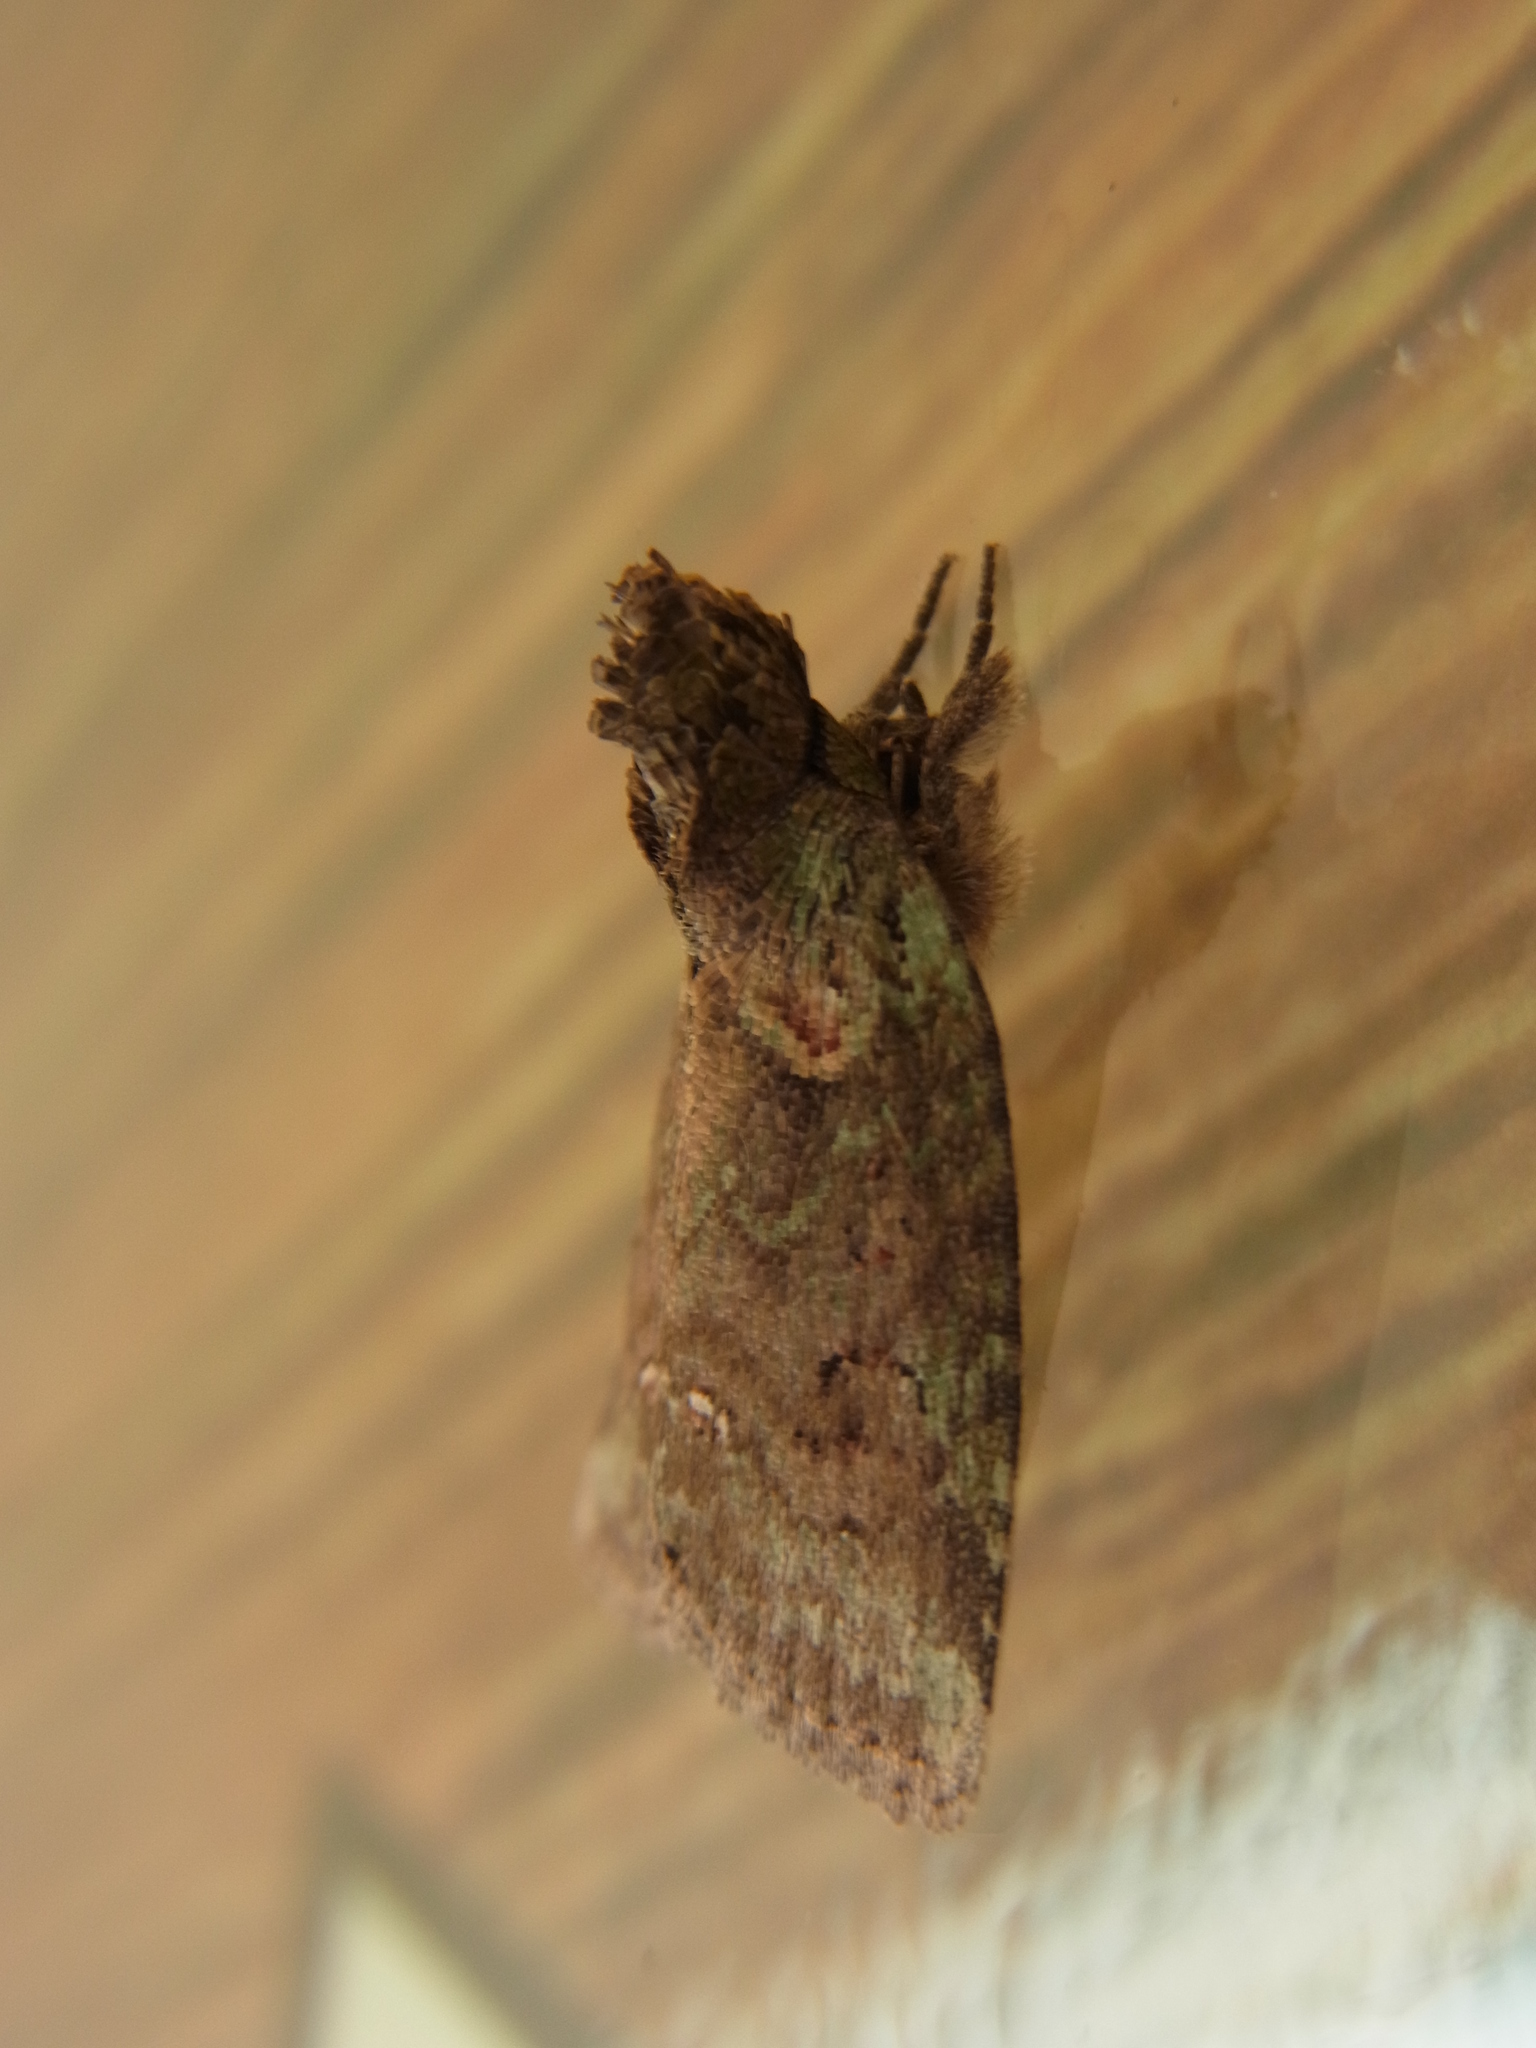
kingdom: Animalia
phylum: Arthropoda
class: Insecta
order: Lepidoptera
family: Noctuidae
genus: Stenoloba
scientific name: Stenoloba manleyi
